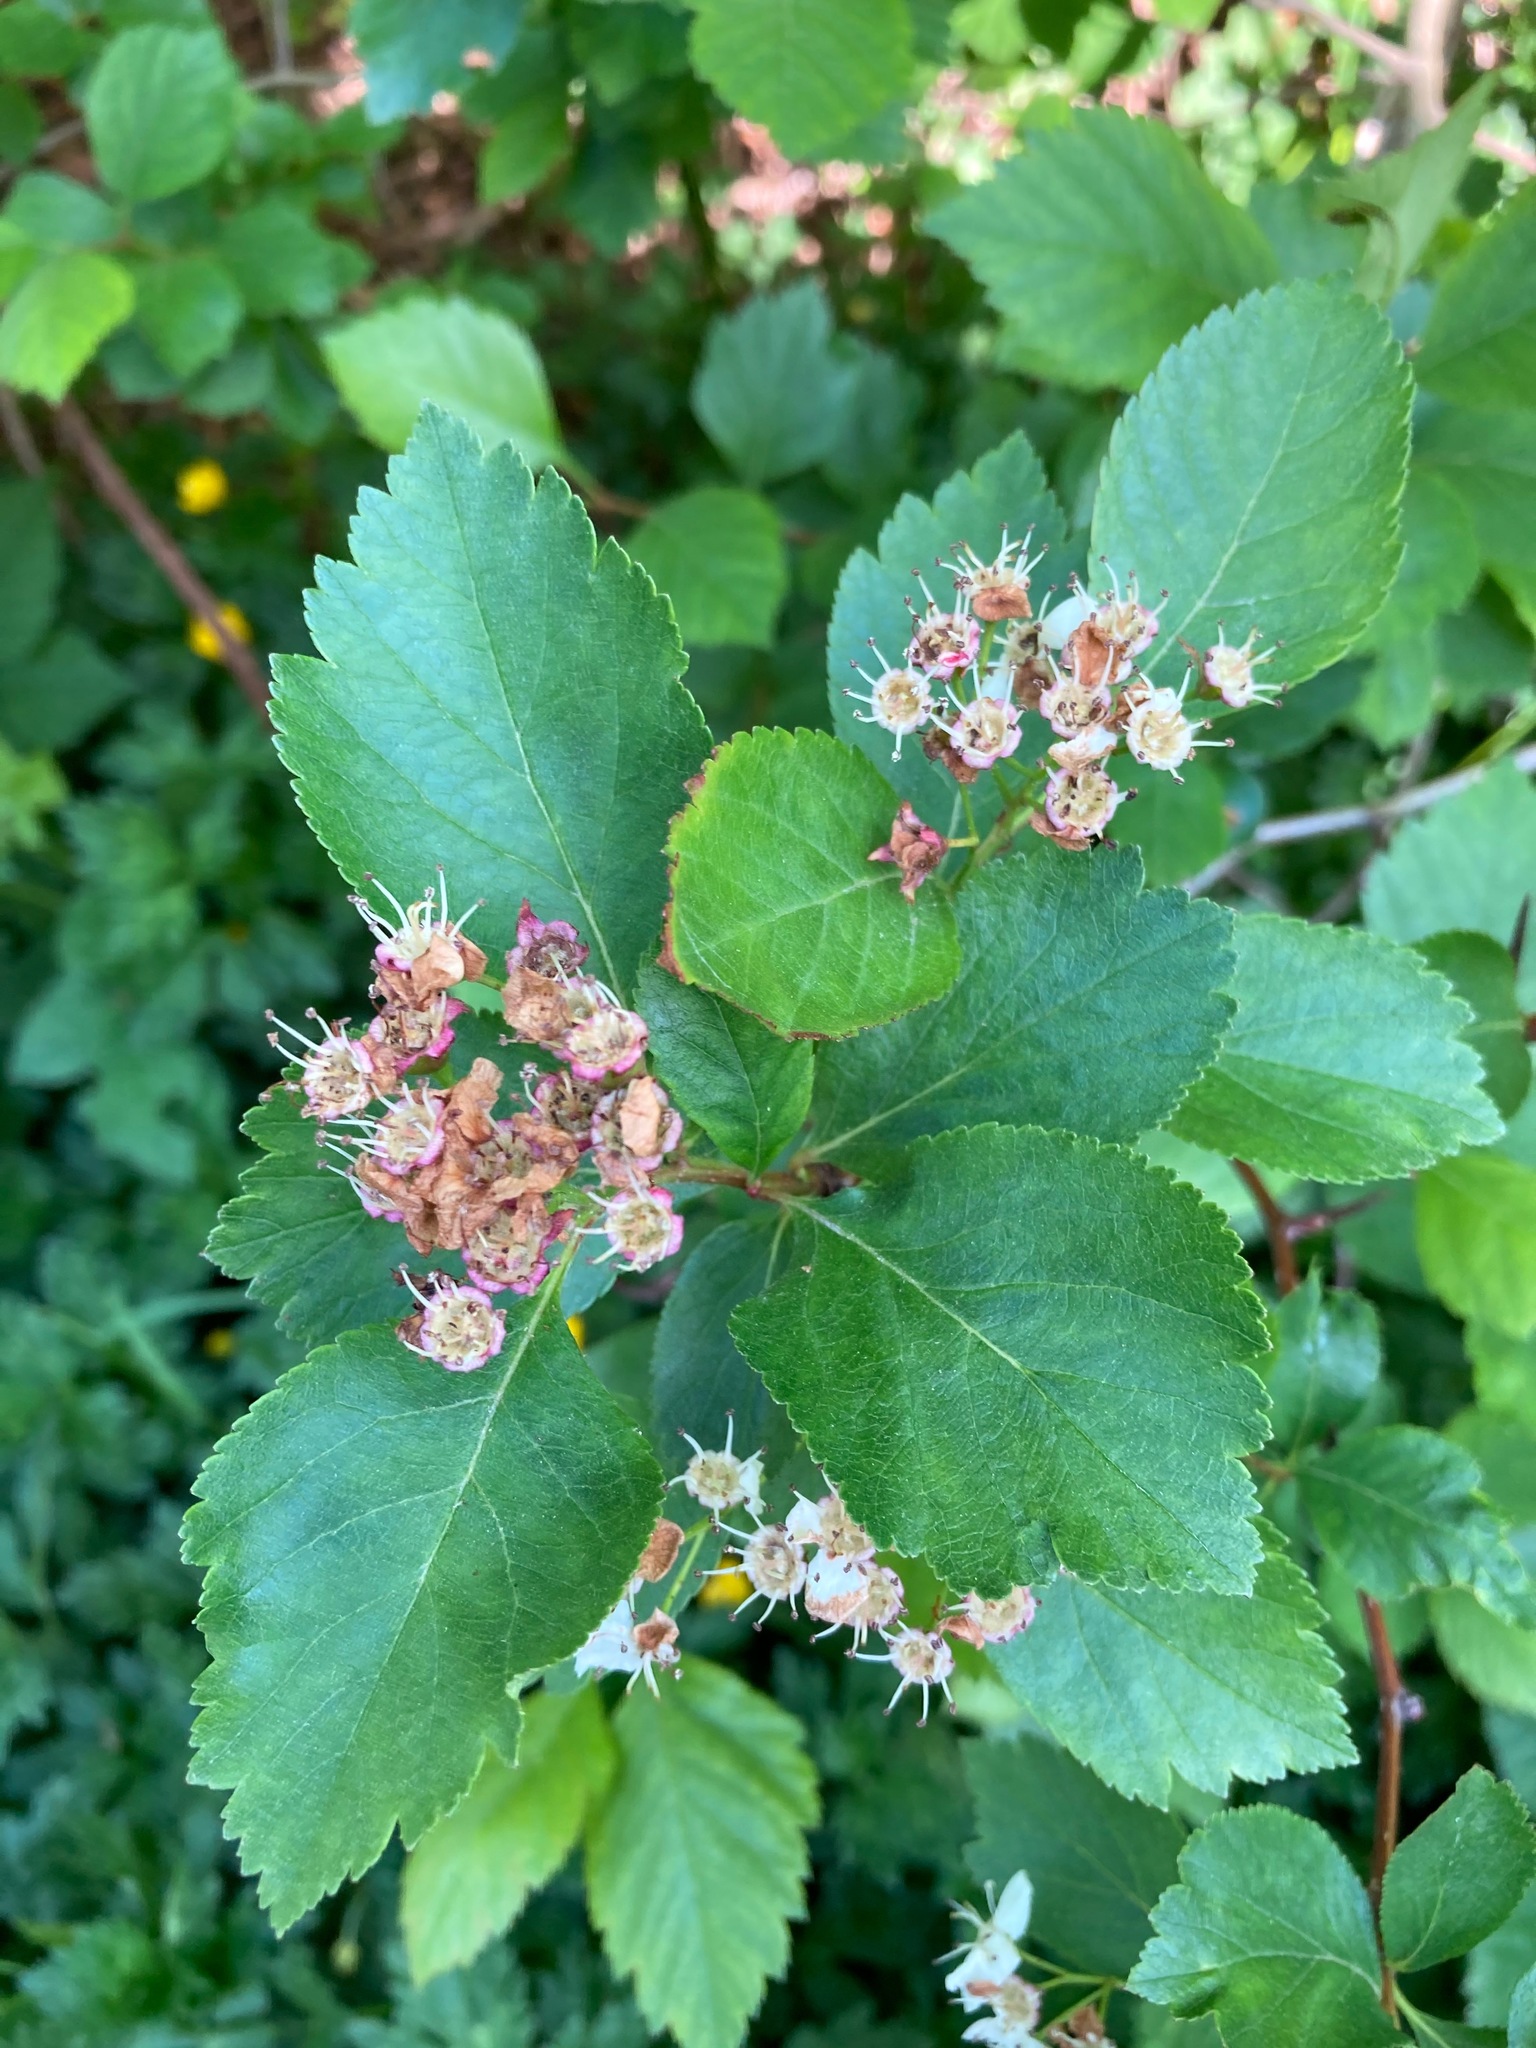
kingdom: Plantae
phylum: Tracheophyta
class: Magnoliopsida
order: Rosales
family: Rosaceae
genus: Crataegus
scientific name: Crataegus douglasii
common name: Black hawthorn
